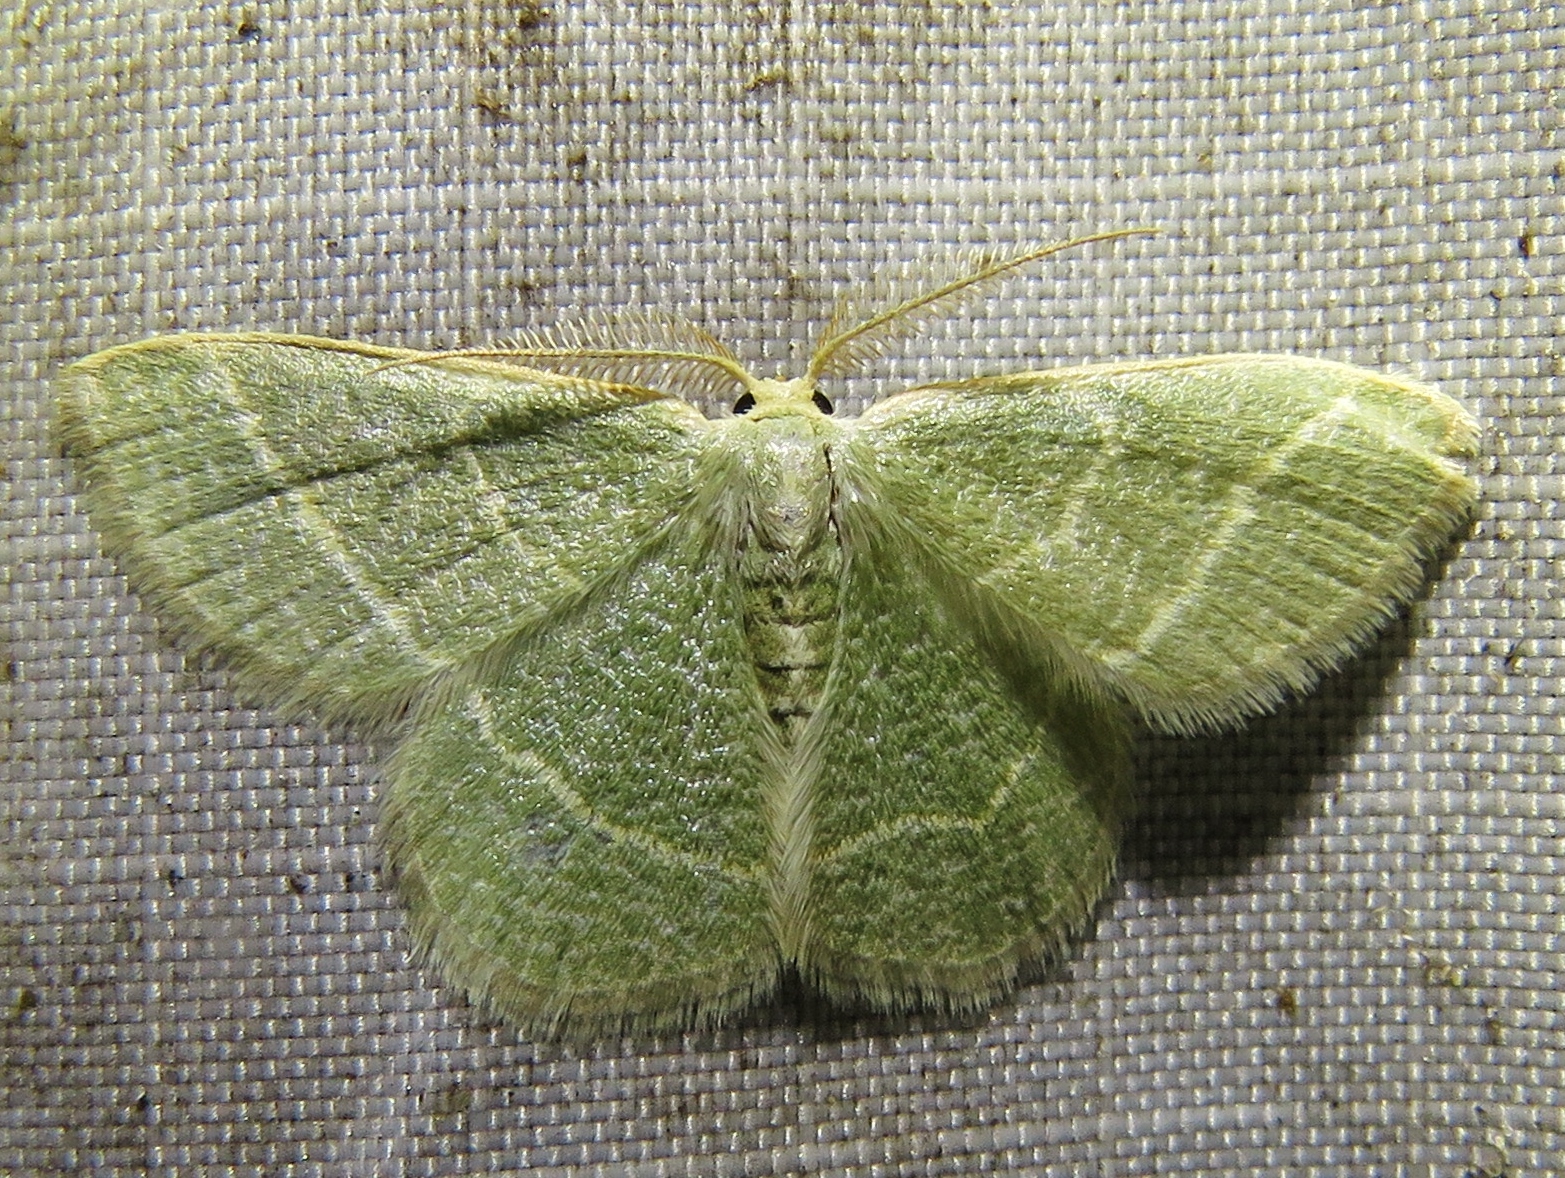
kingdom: Animalia
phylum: Arthropoda
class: Insecta
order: Lepidoptera
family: Geometridae
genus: Chlorochlamys
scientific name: Chlorochlamys chloroleucaria
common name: Blackberry looper
